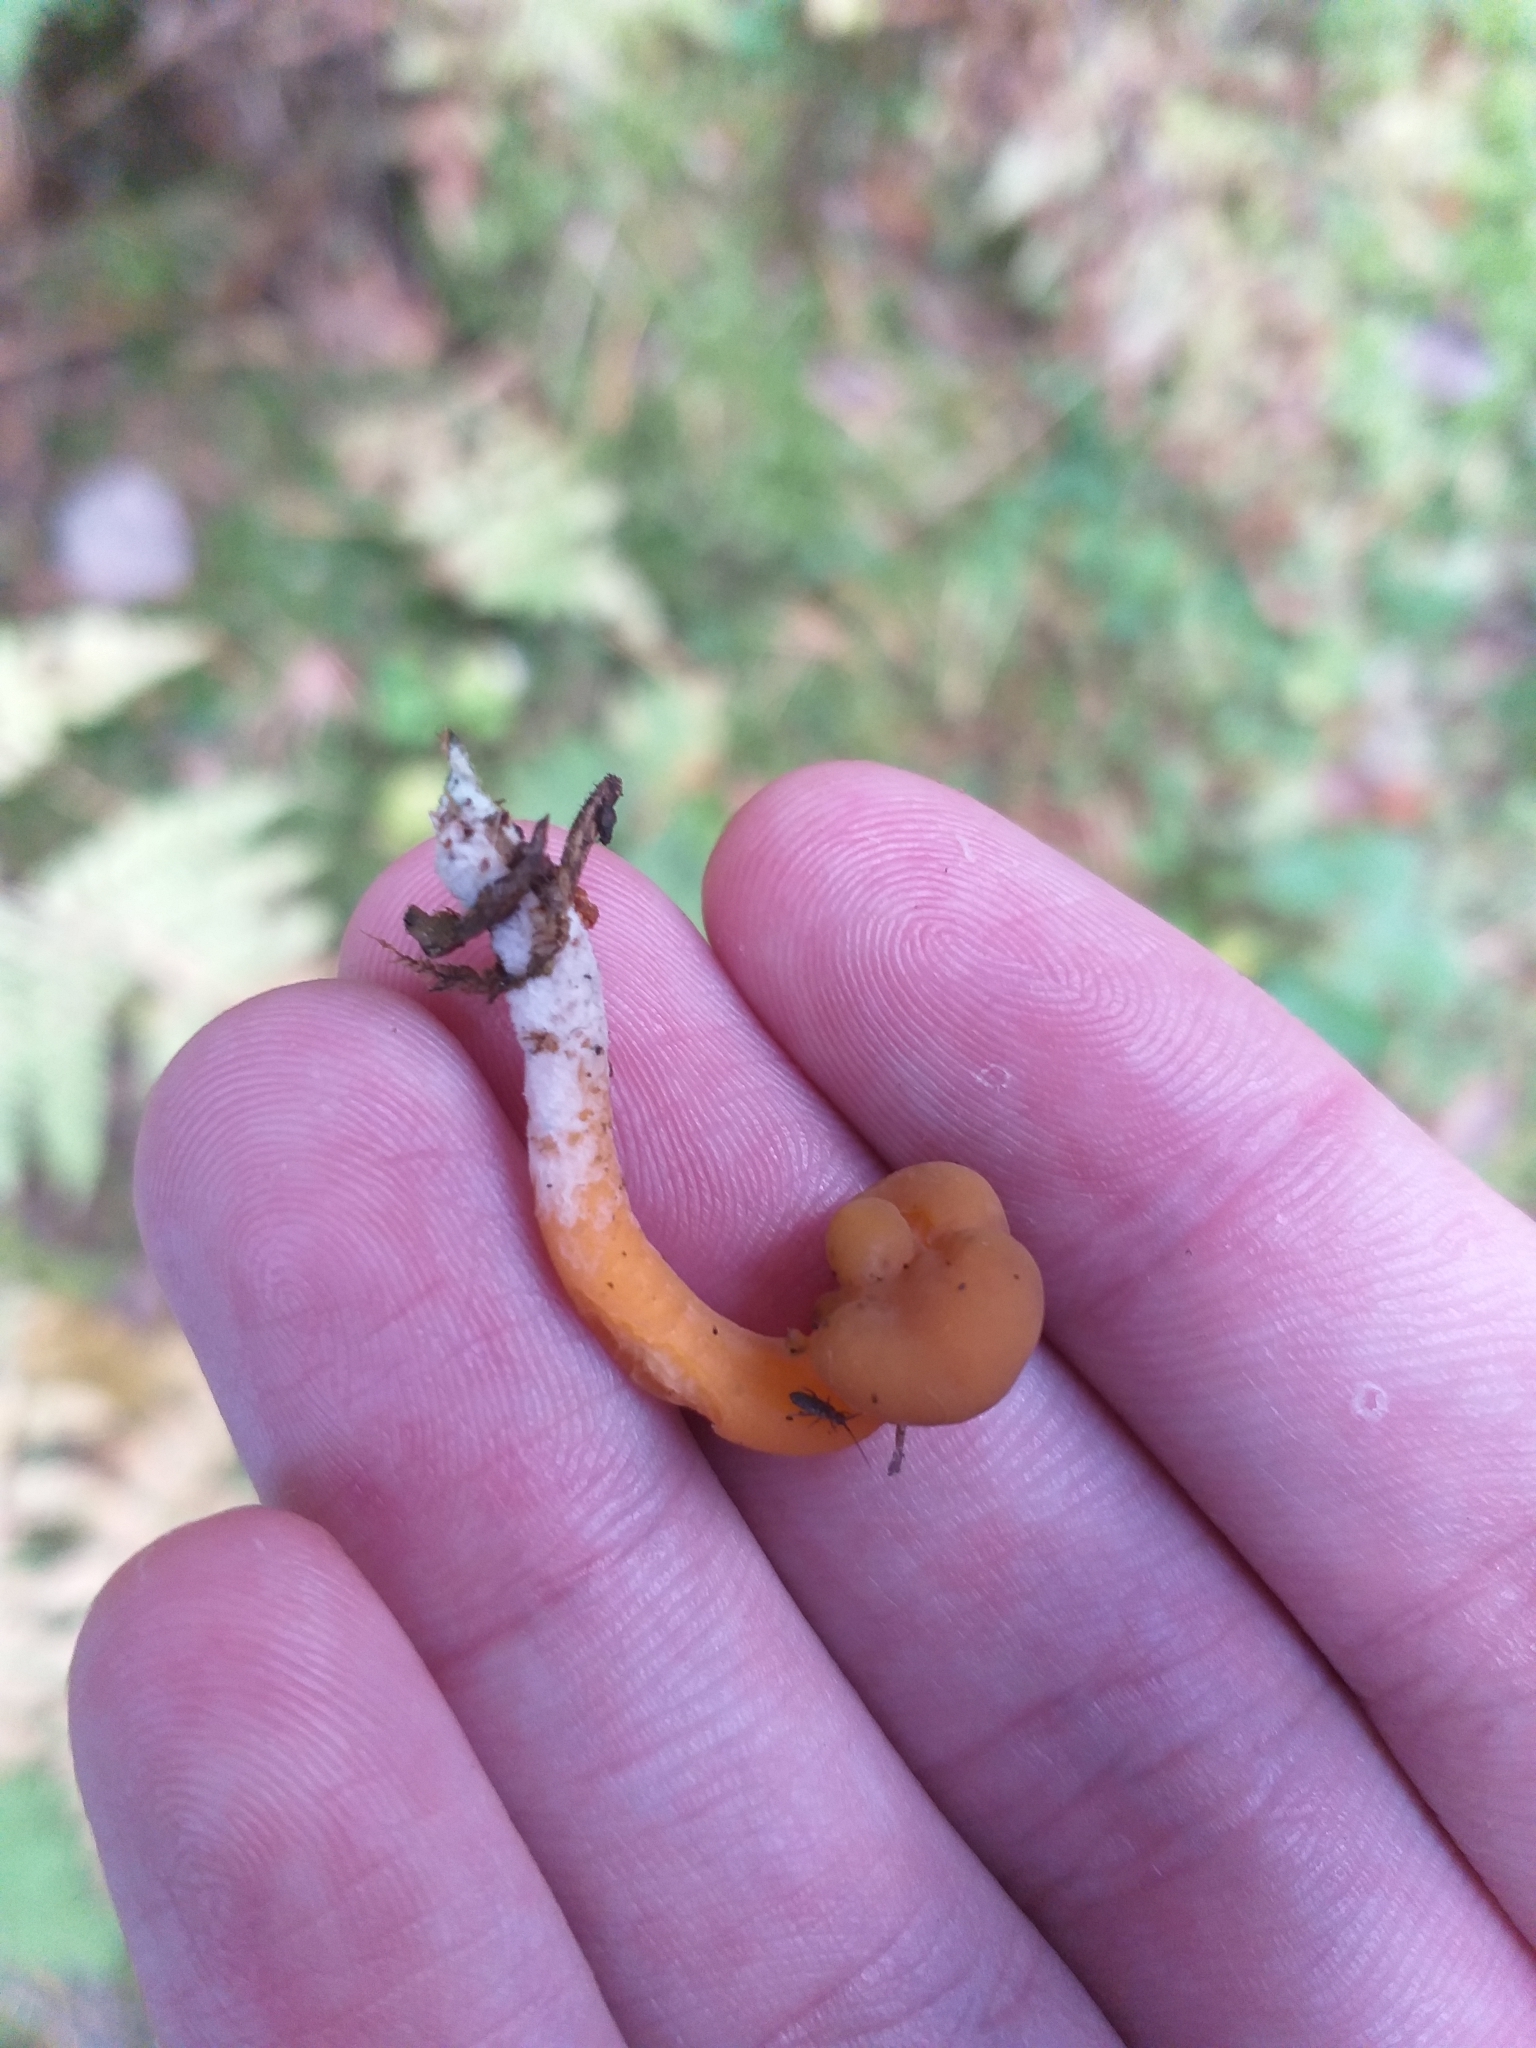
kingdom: Fungi
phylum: Ascomycota
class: Leotiomycetes
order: Leotiales
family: Leotiaceae
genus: Leotia
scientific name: Leotia lubrica
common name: Jellybaby
